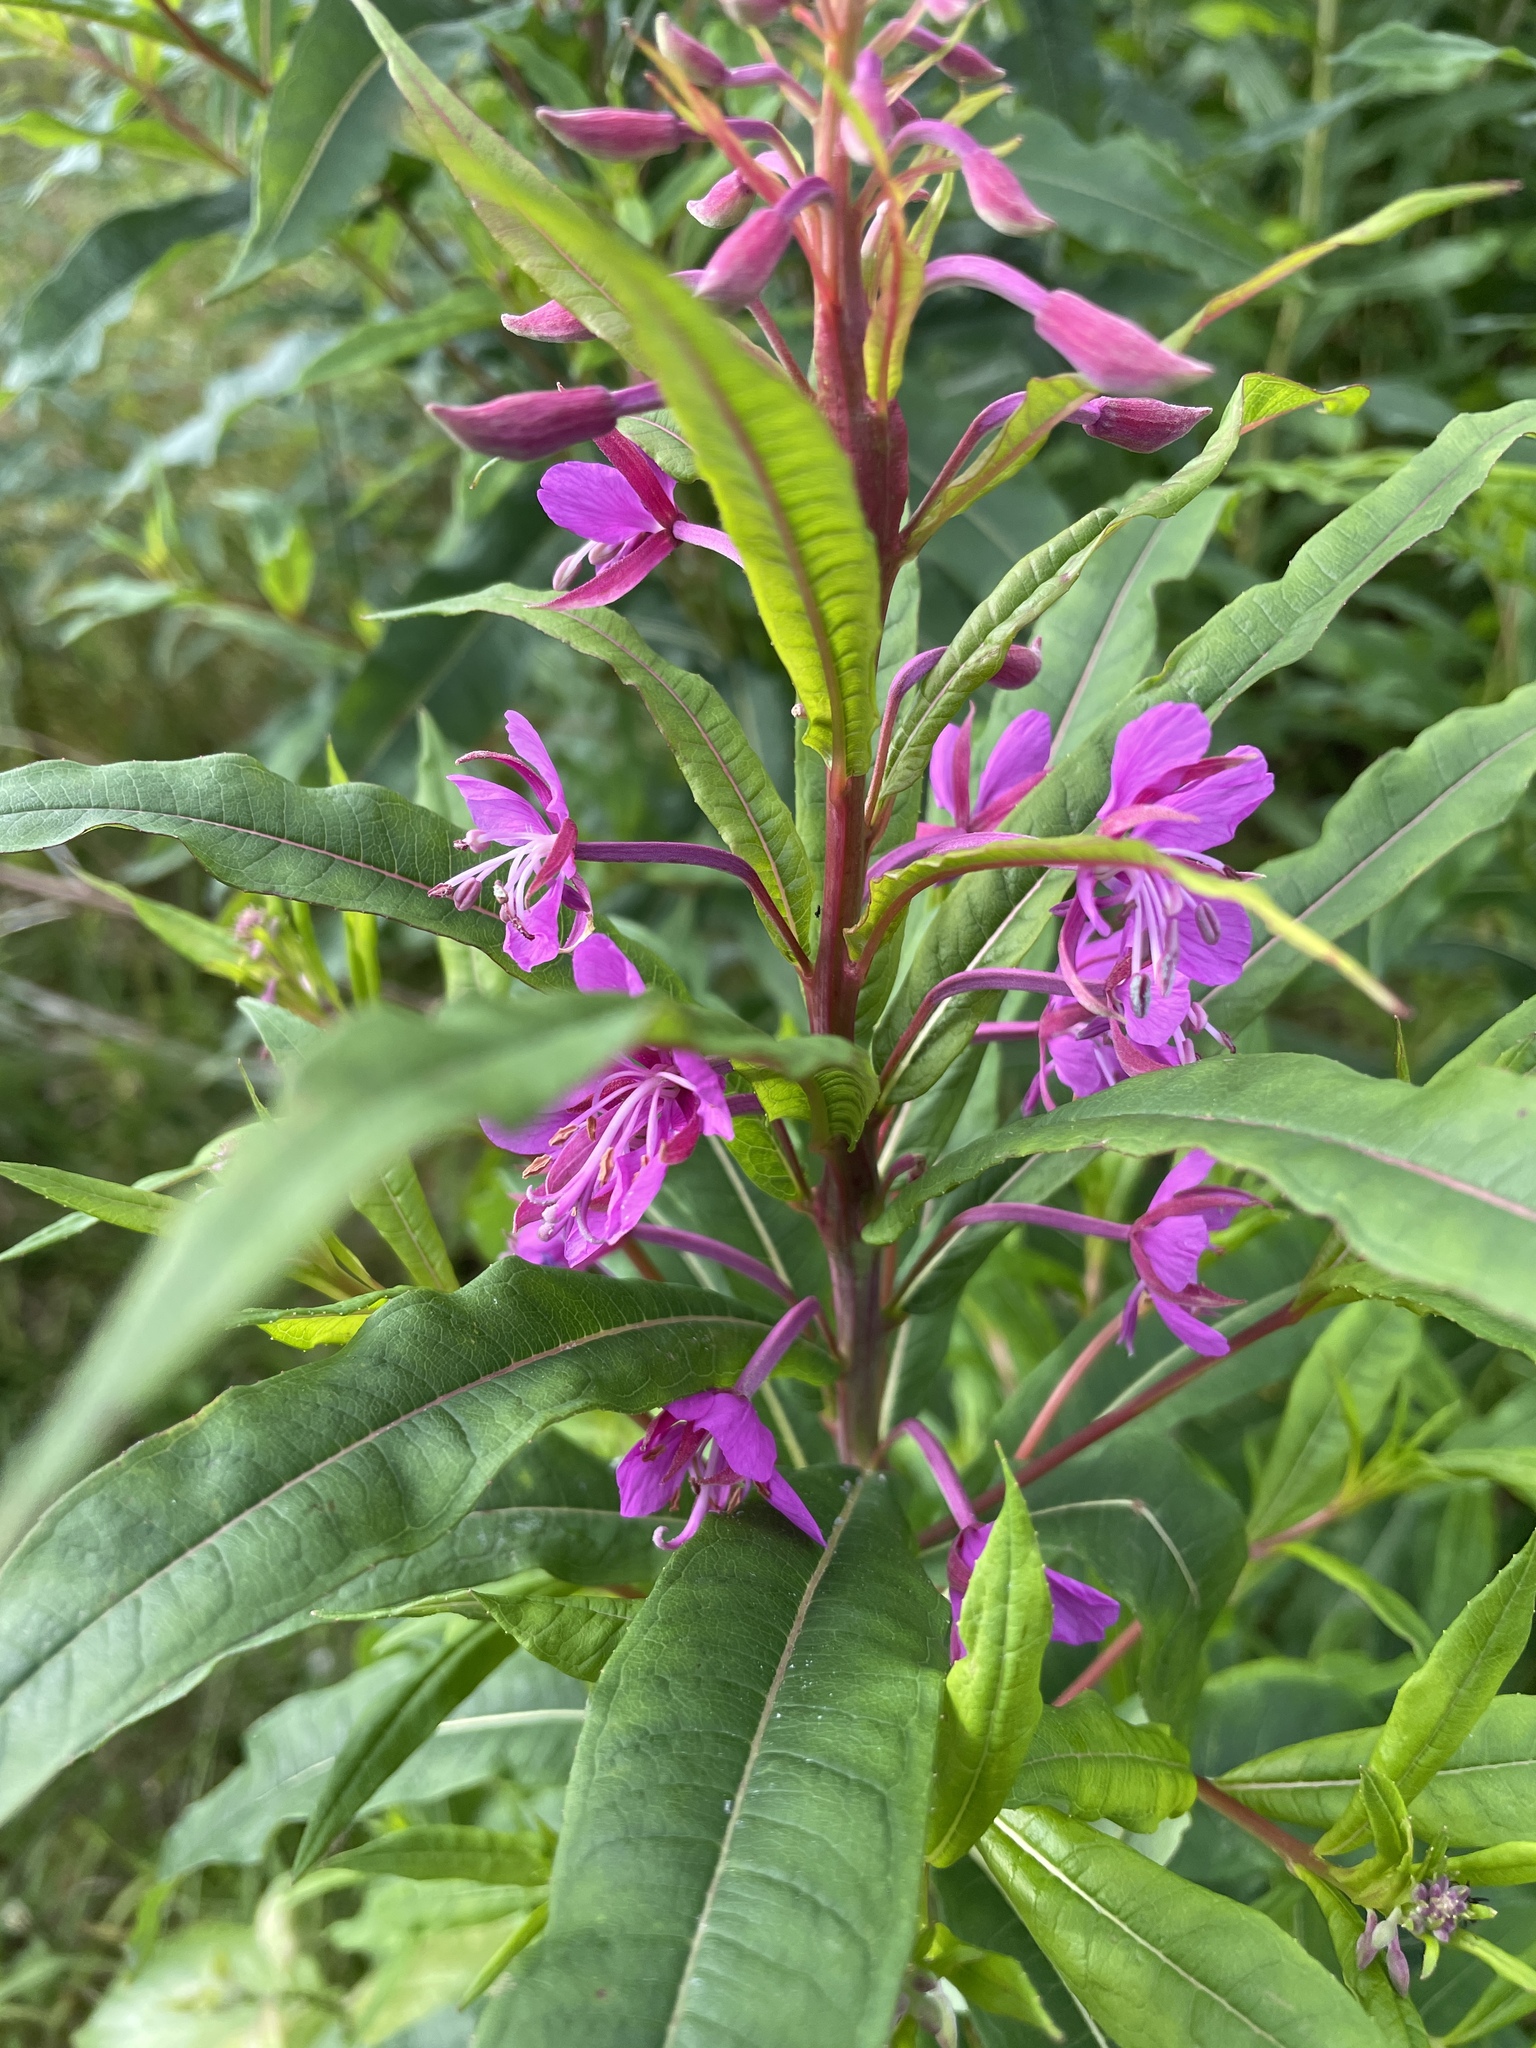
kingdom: Plantae
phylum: Tracheophyta
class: Magnoliopsida
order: Myrtales
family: Onagraceae
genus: Chamaenerion
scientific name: Chamaenerion angustifolium
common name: Fireweed
